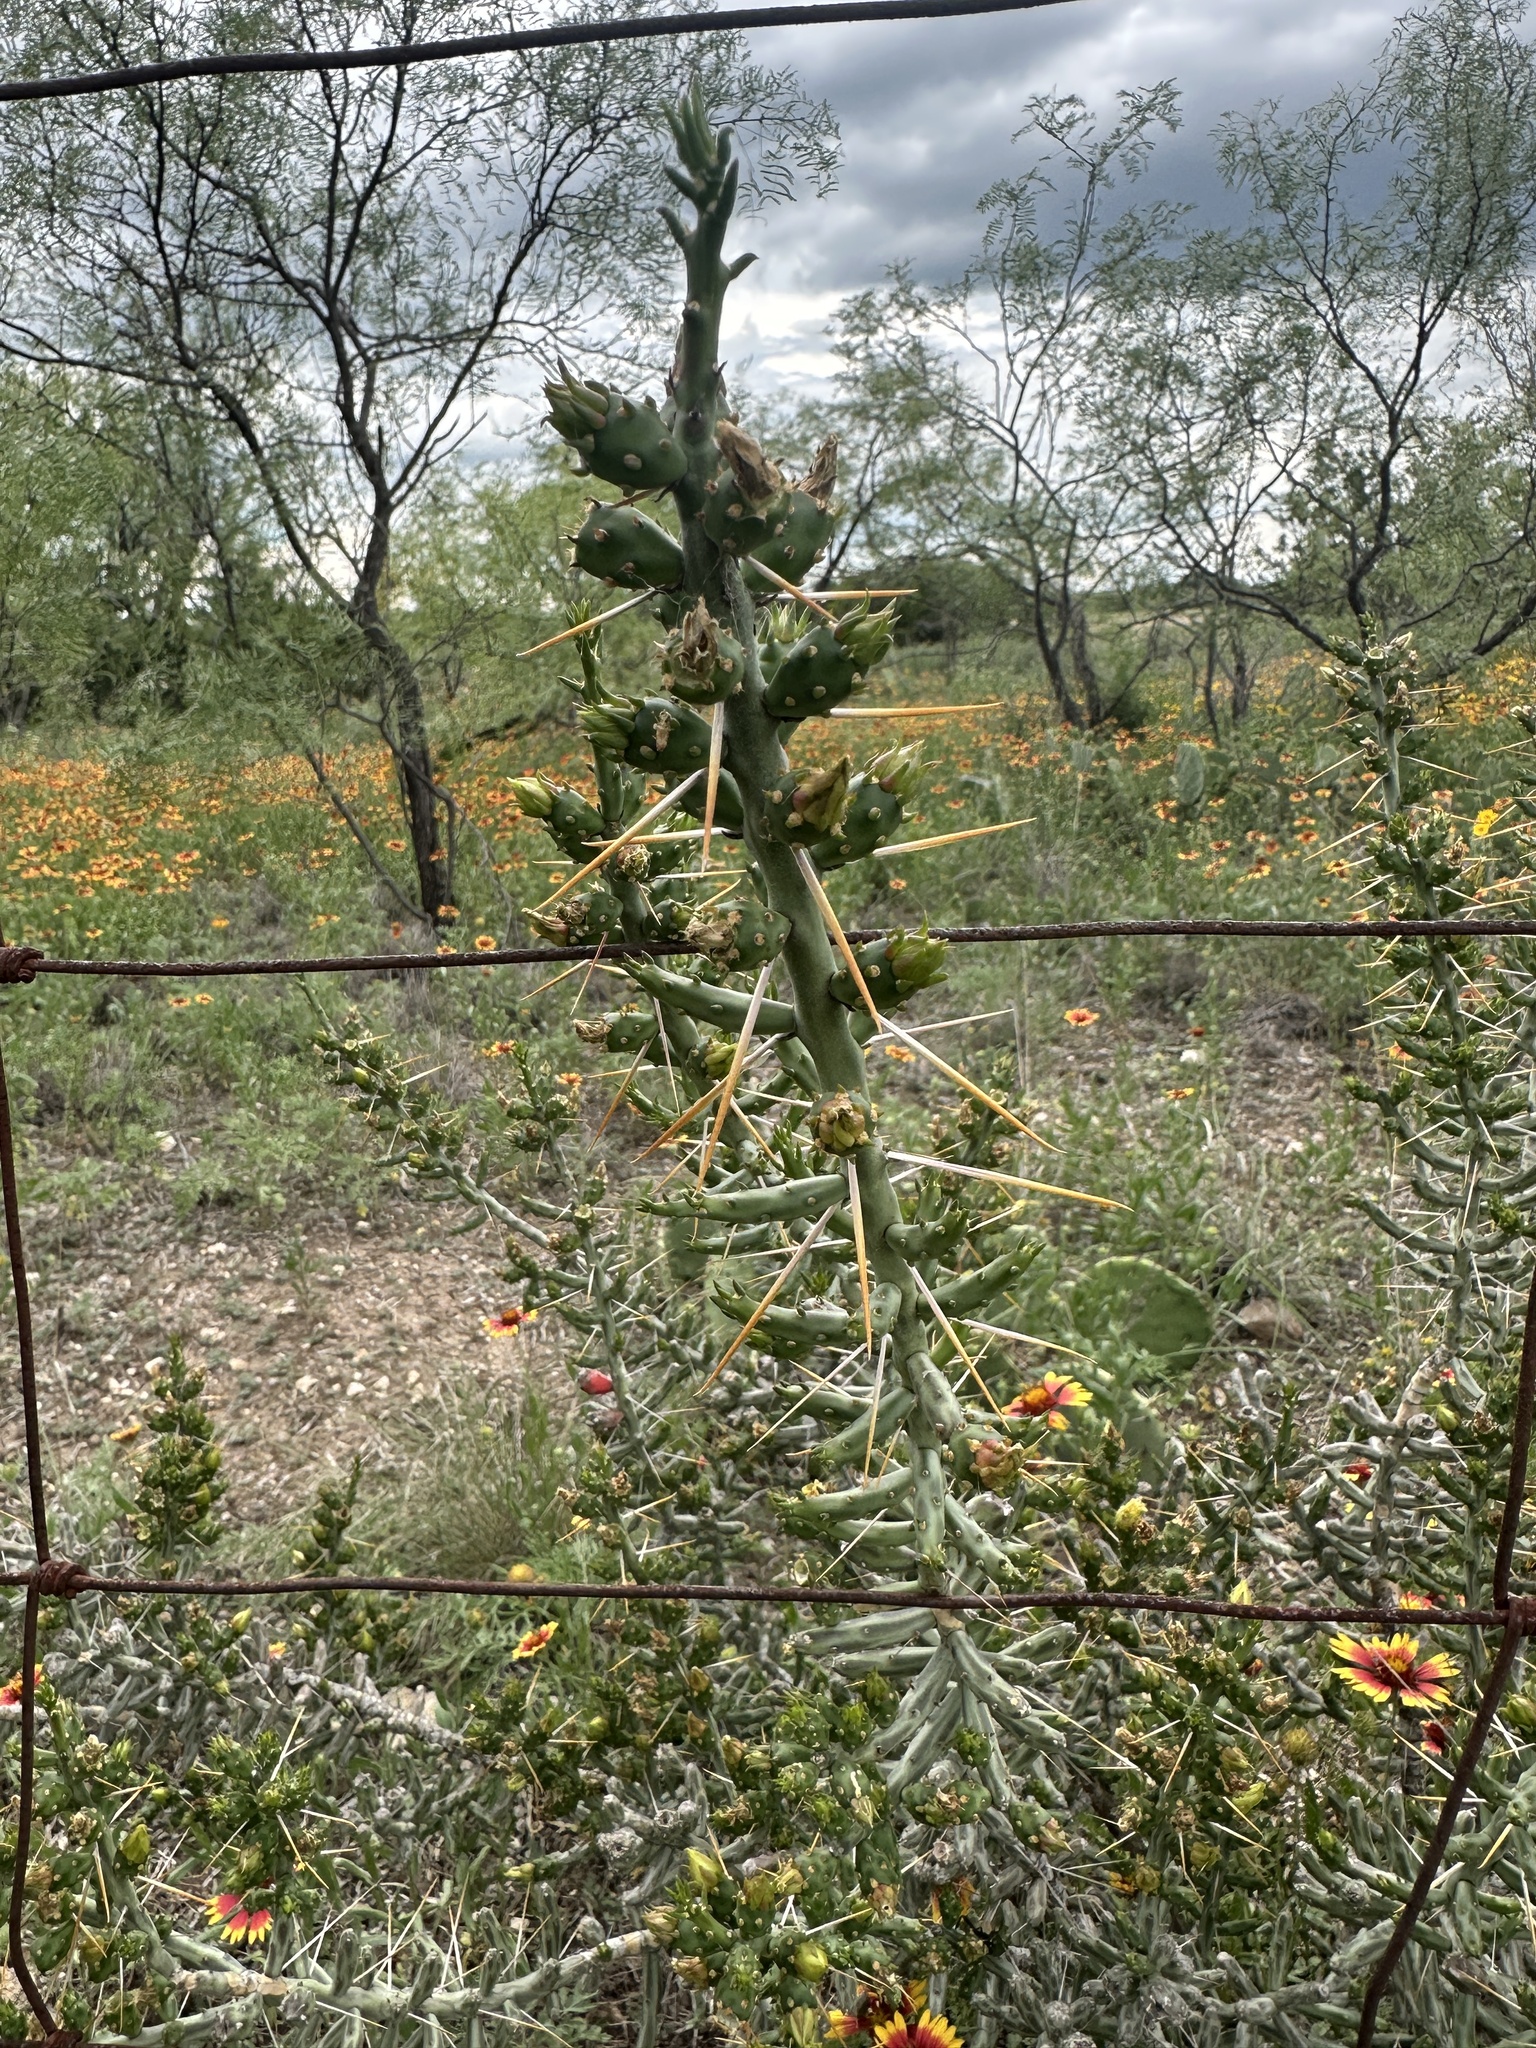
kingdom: Plantae
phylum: Tracheophyta
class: Magnoliopsida
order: Caryophyllales
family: Cactaceae
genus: Cylindropuntia
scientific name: Cylindropuntia leptocaulis
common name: Christmas cactus
